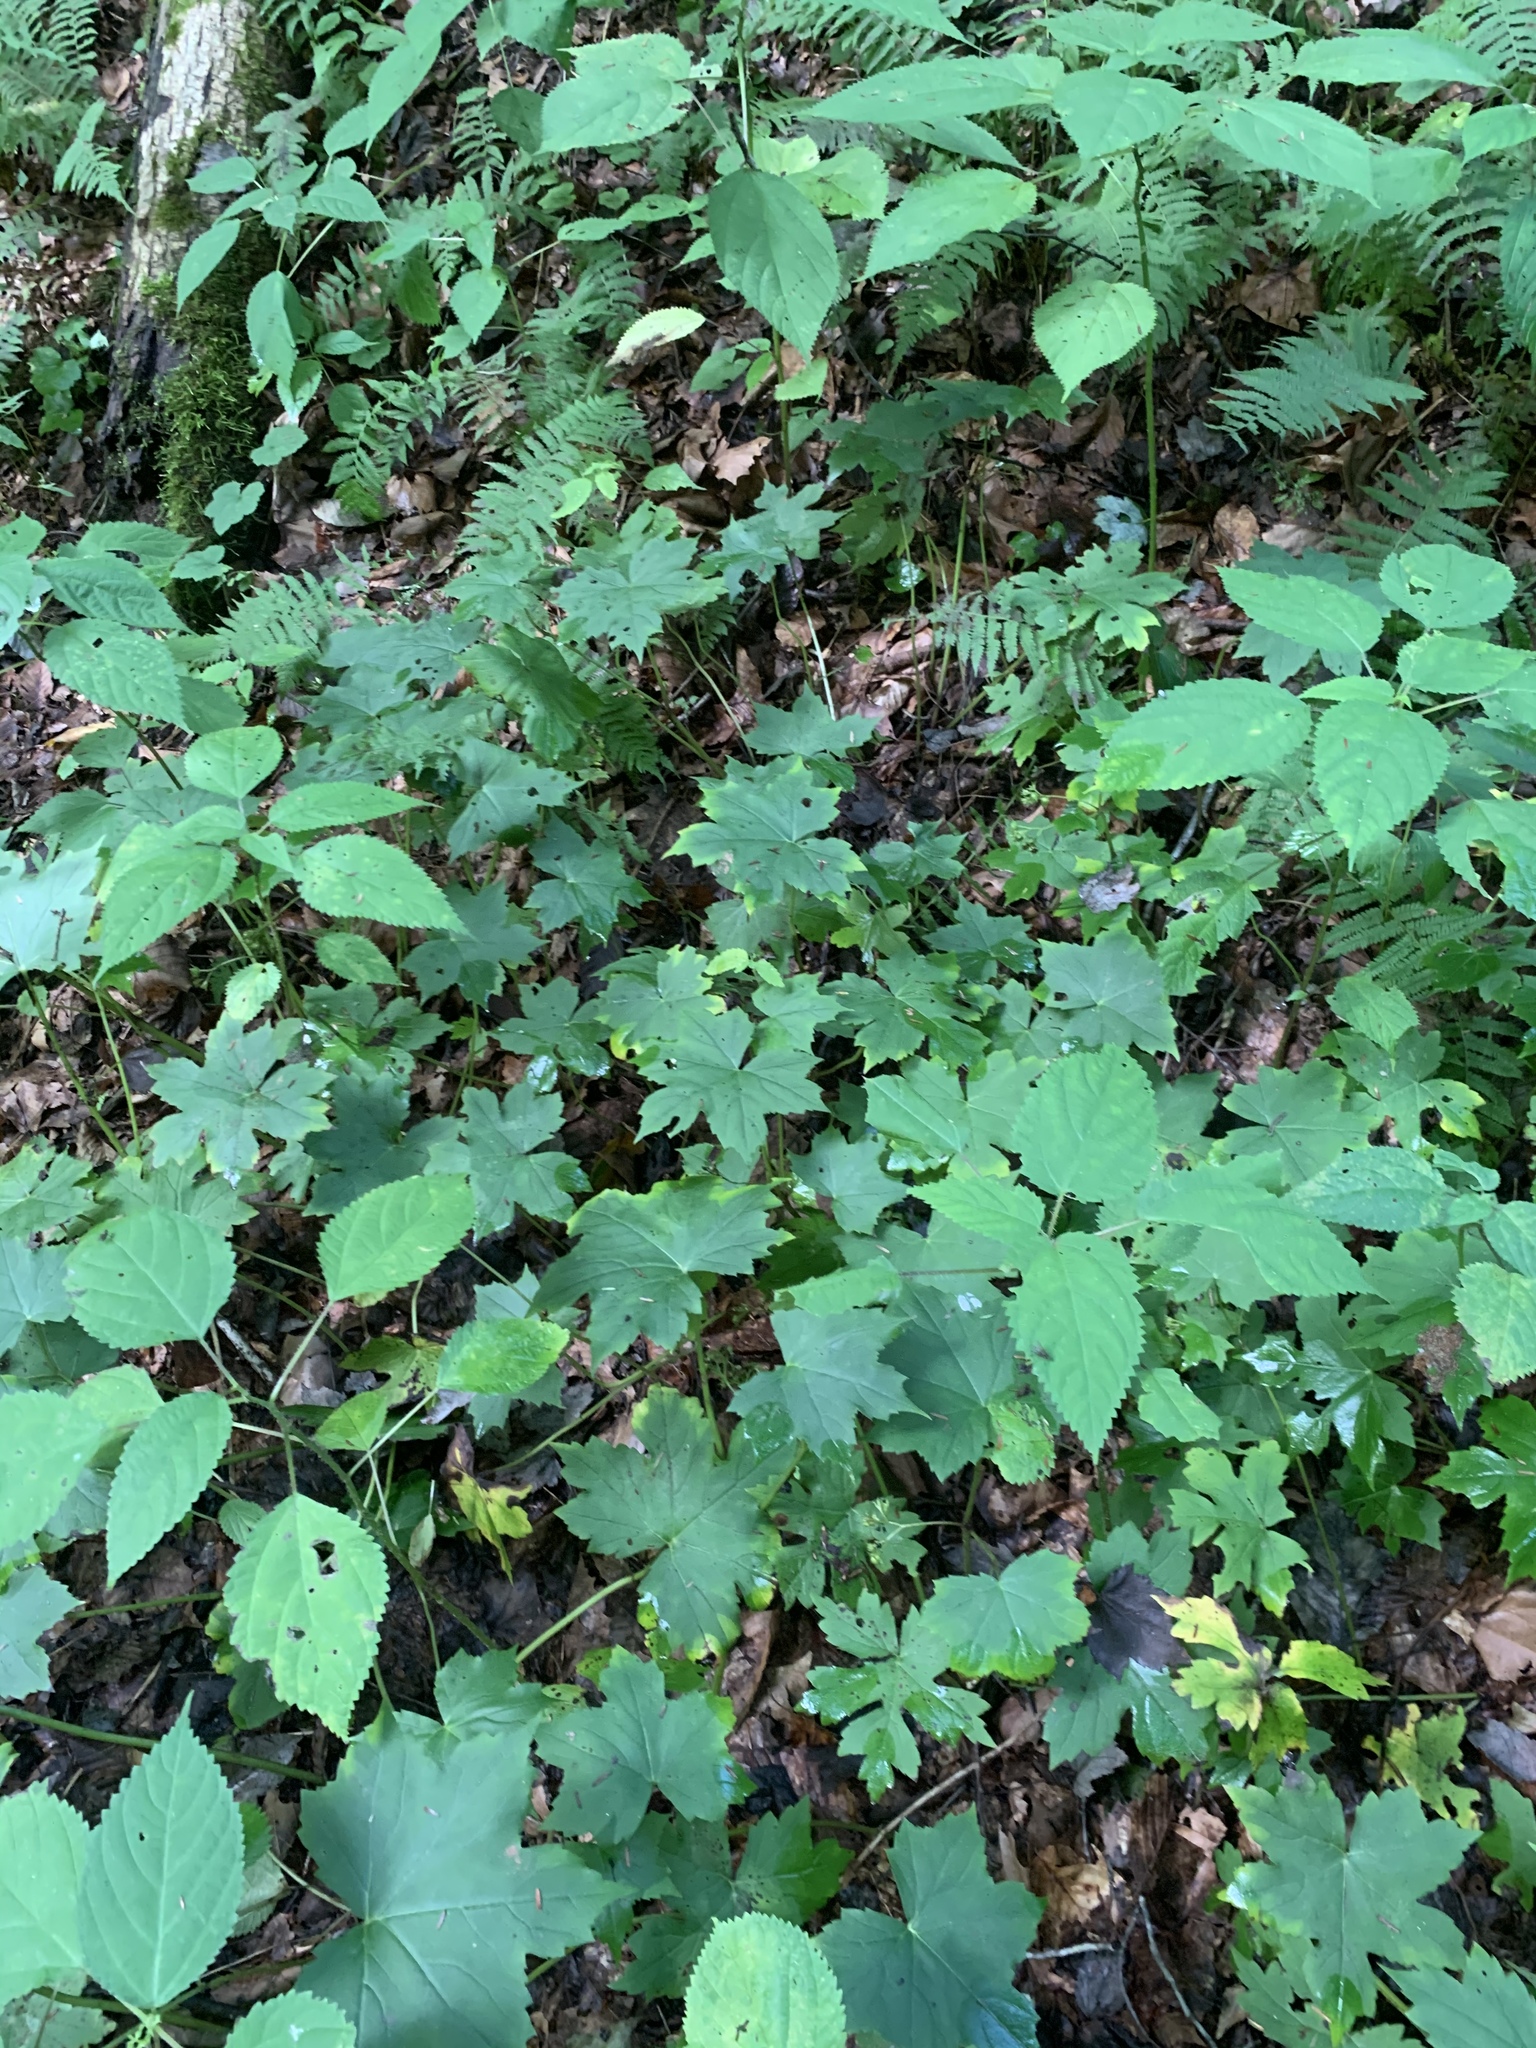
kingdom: Plantae
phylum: Tracheophyta
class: Magnoliopsida
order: Boraginales
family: Hydrophyllaceae
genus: Hydrophyllum
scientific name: Hydrophyllum canadense
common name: Canada waterleaf
